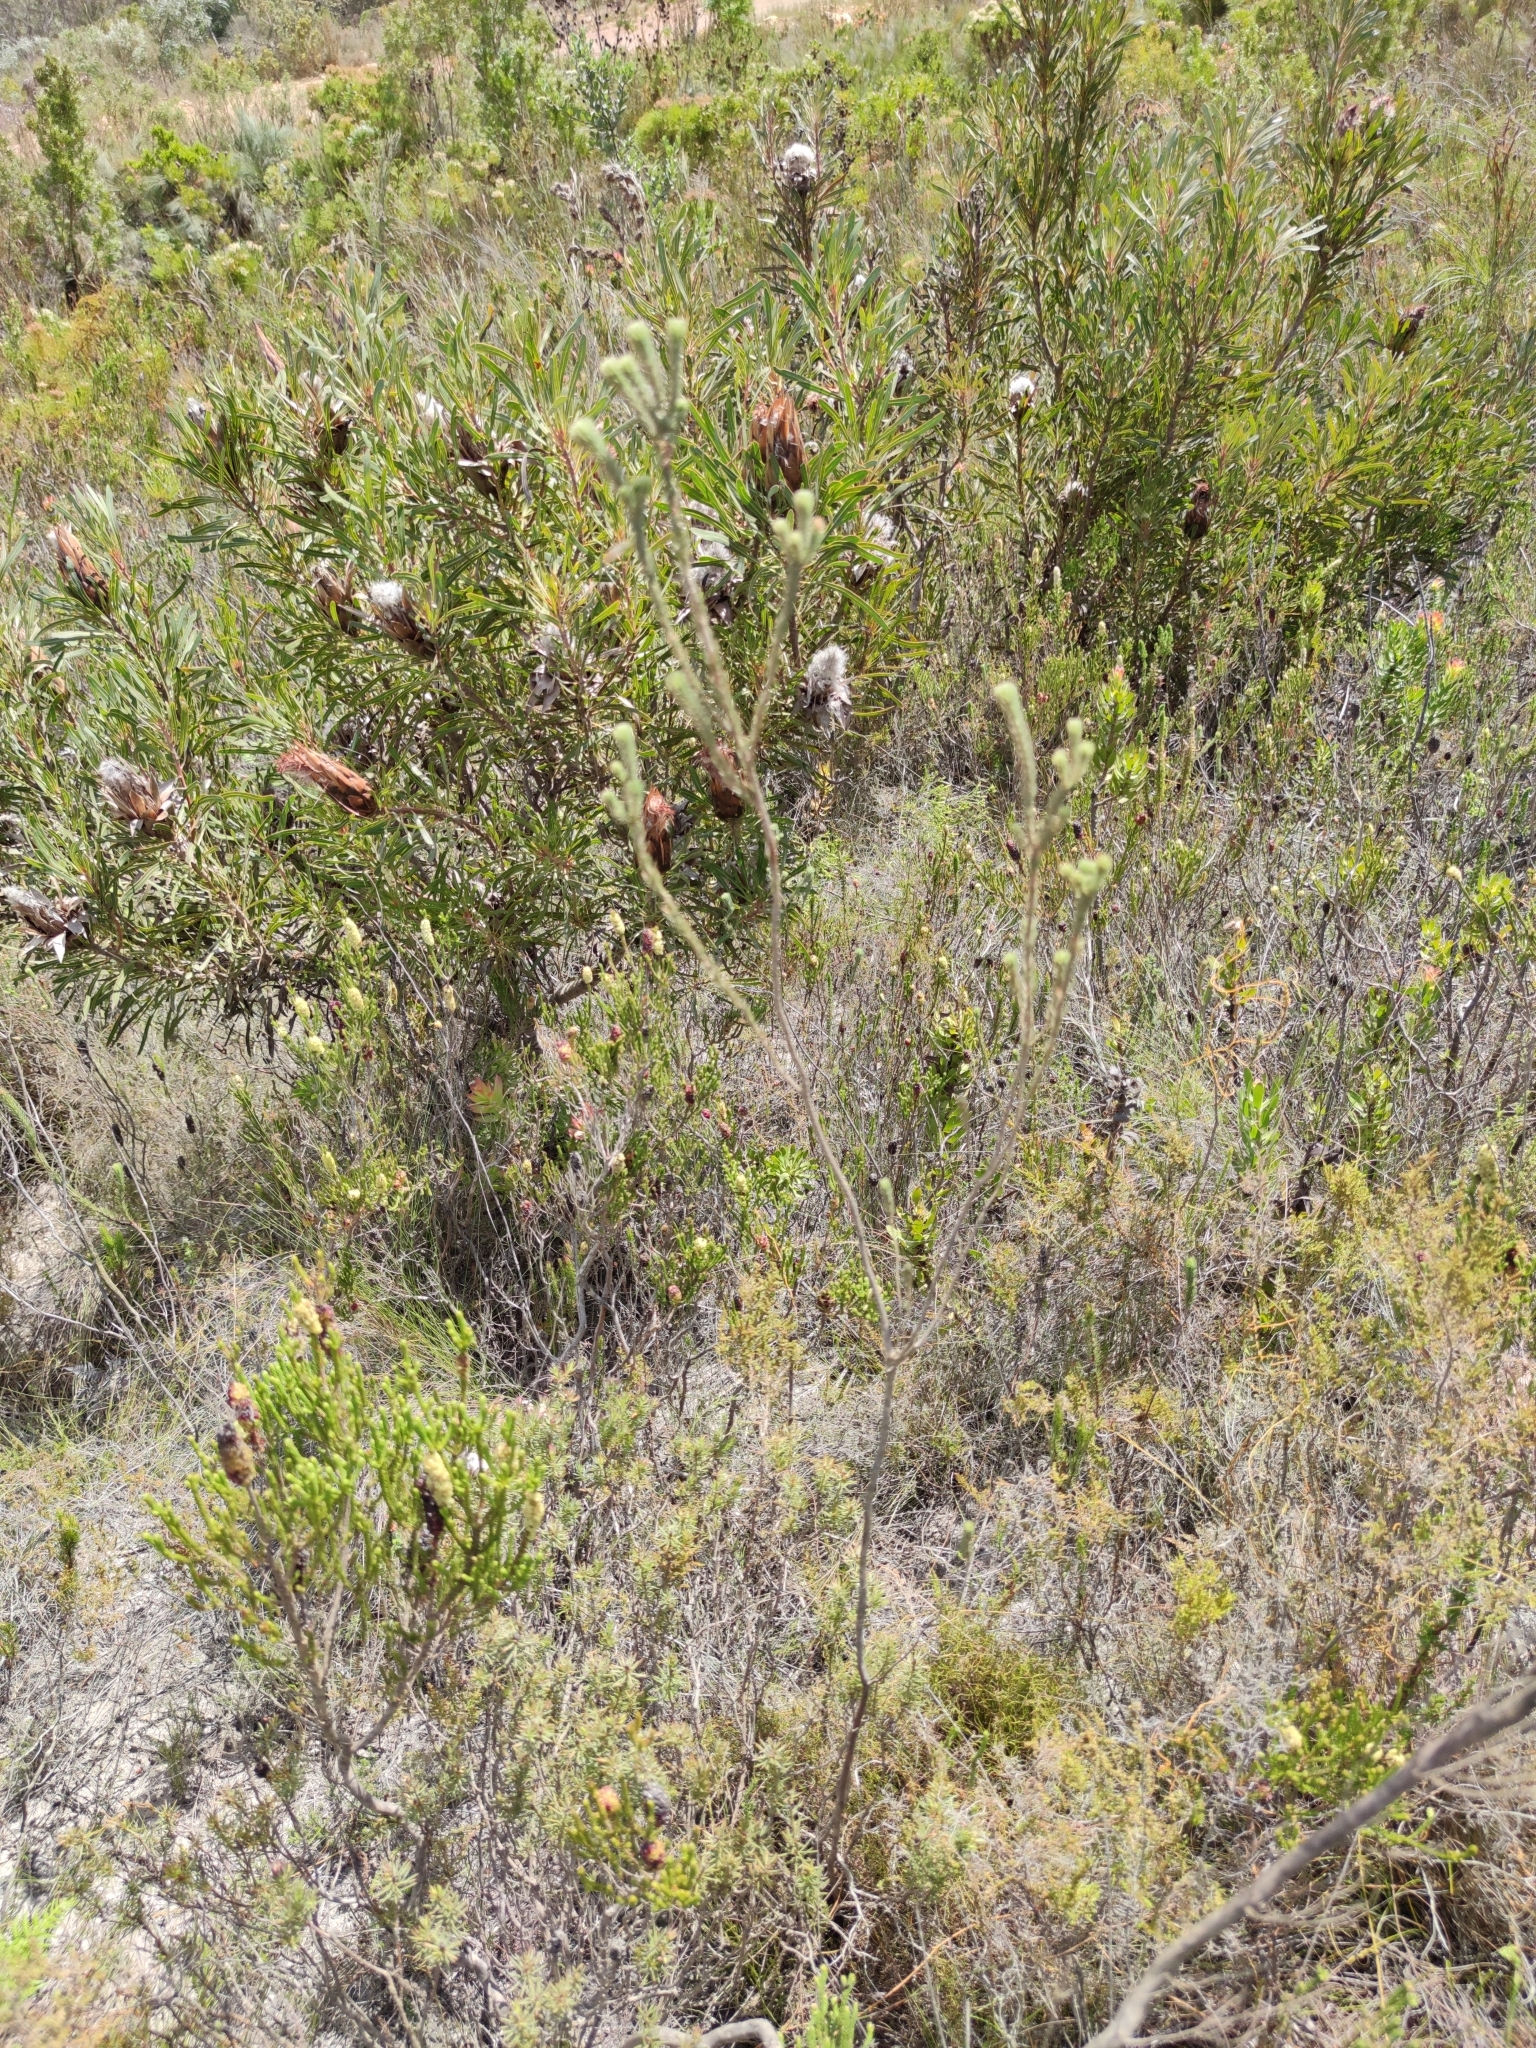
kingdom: Plantae
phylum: Tracheophyta
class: Magnoliopsida
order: Ericales
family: Ericaceae
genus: Erica
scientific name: Erica viscaria
